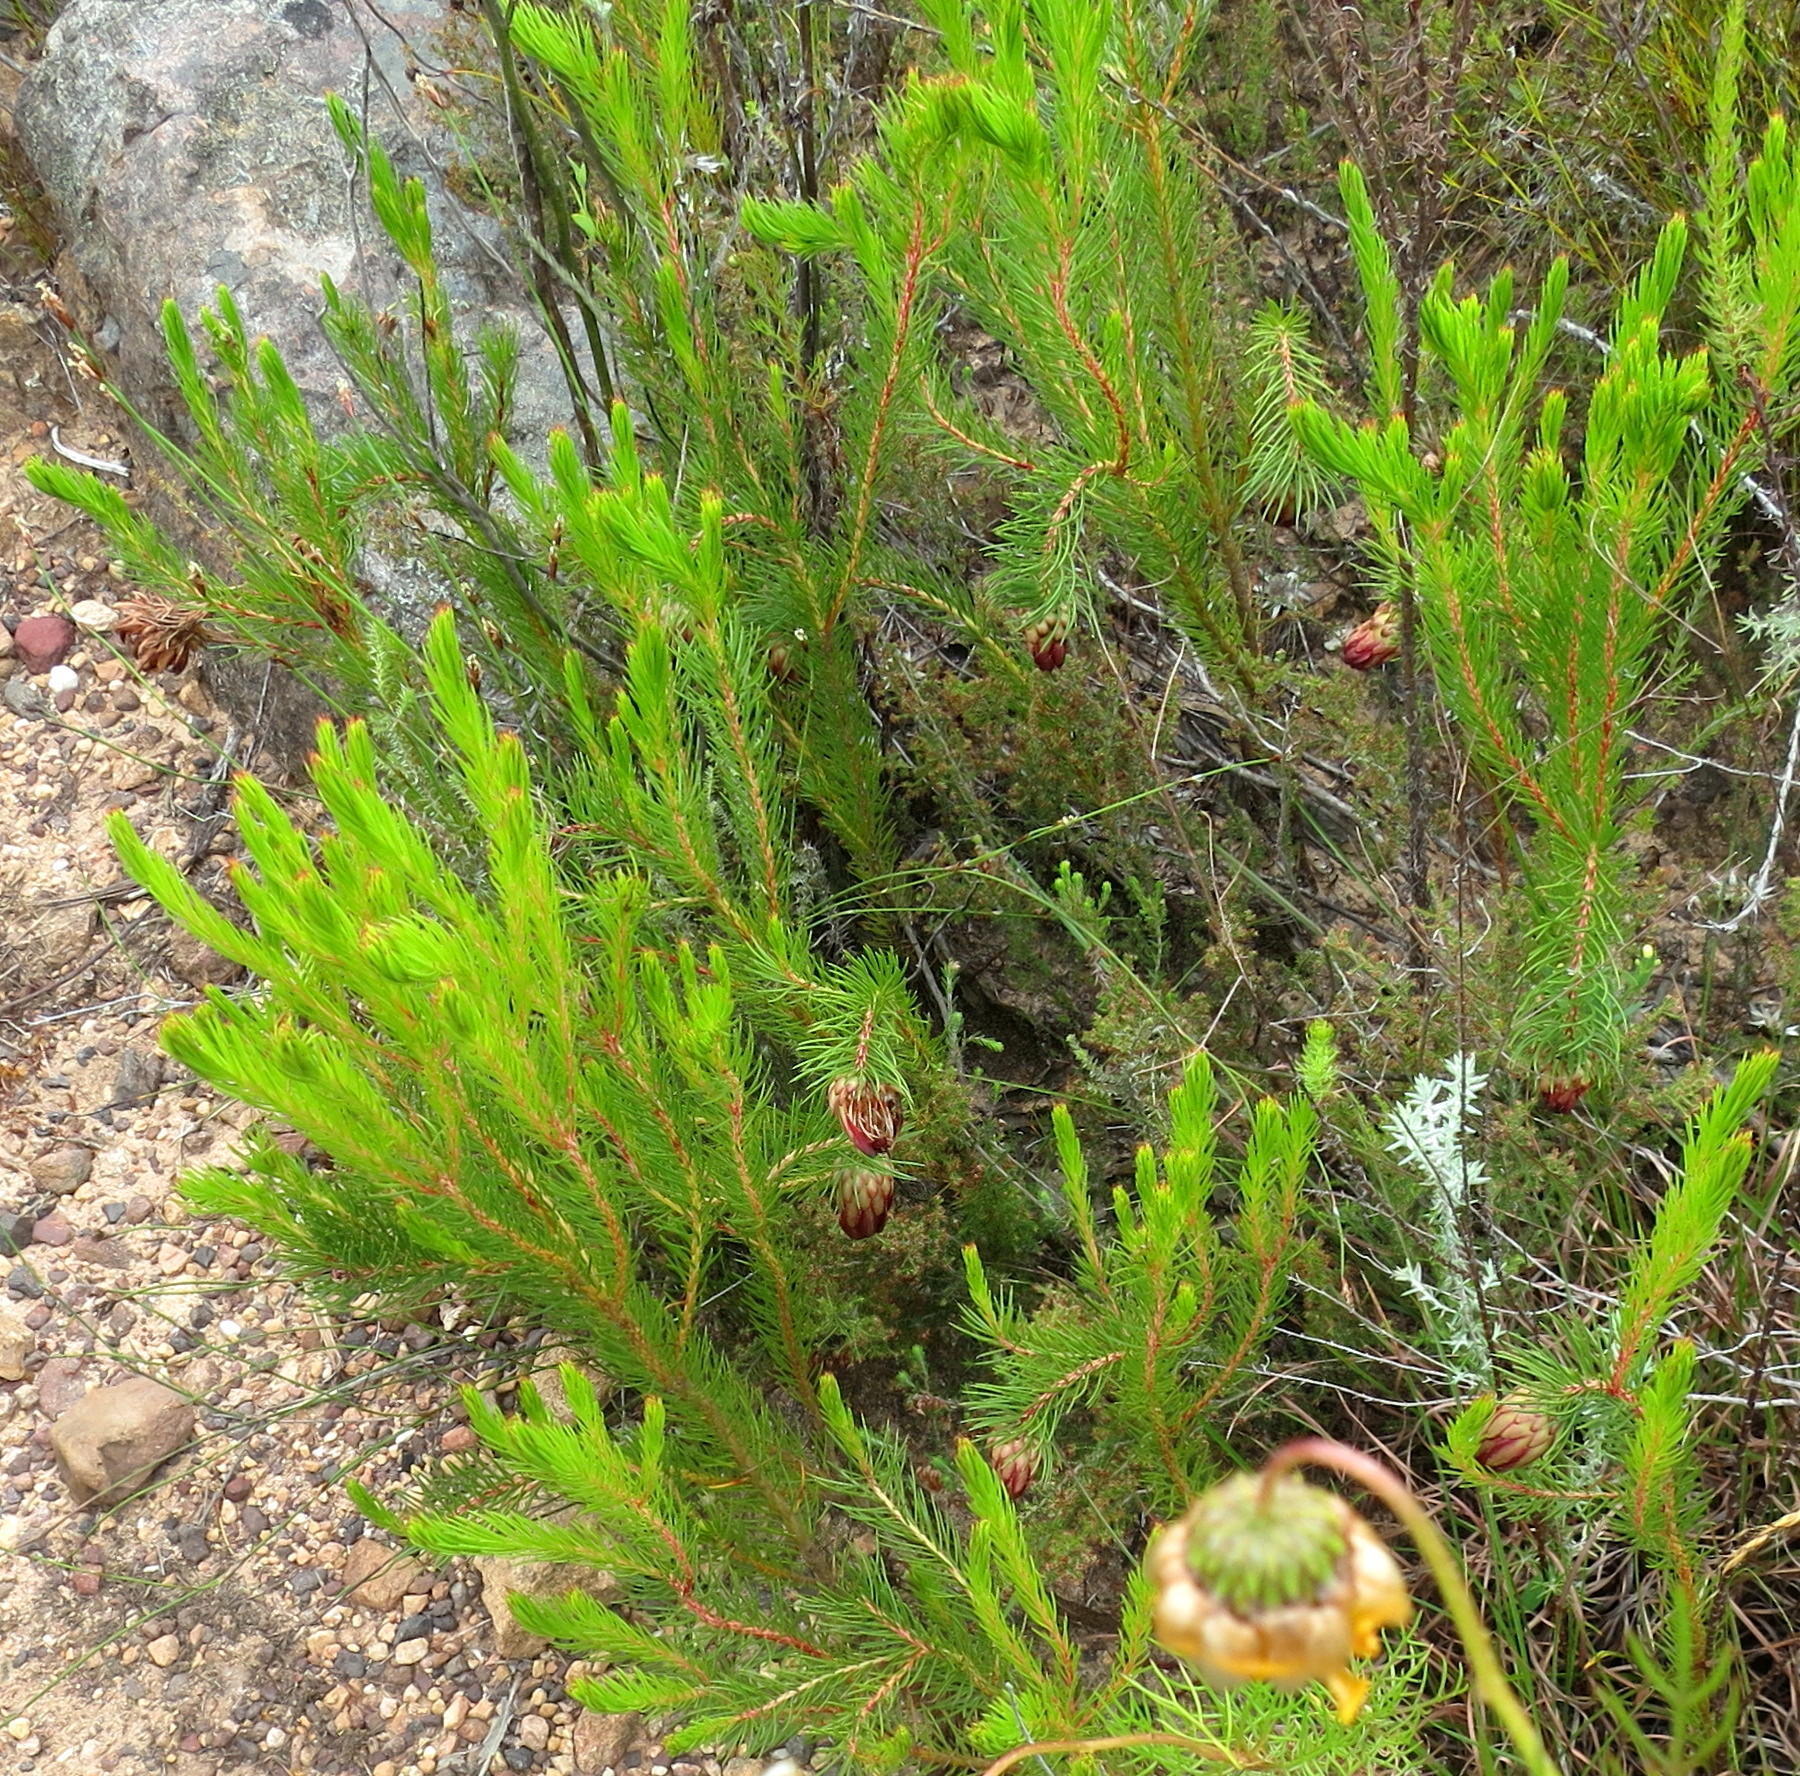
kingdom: Plantae
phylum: Tracheophyta
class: Magnoliopsida
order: Proteales
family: Proteaceae
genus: Protea
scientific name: Protea nana
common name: Mountain rose
